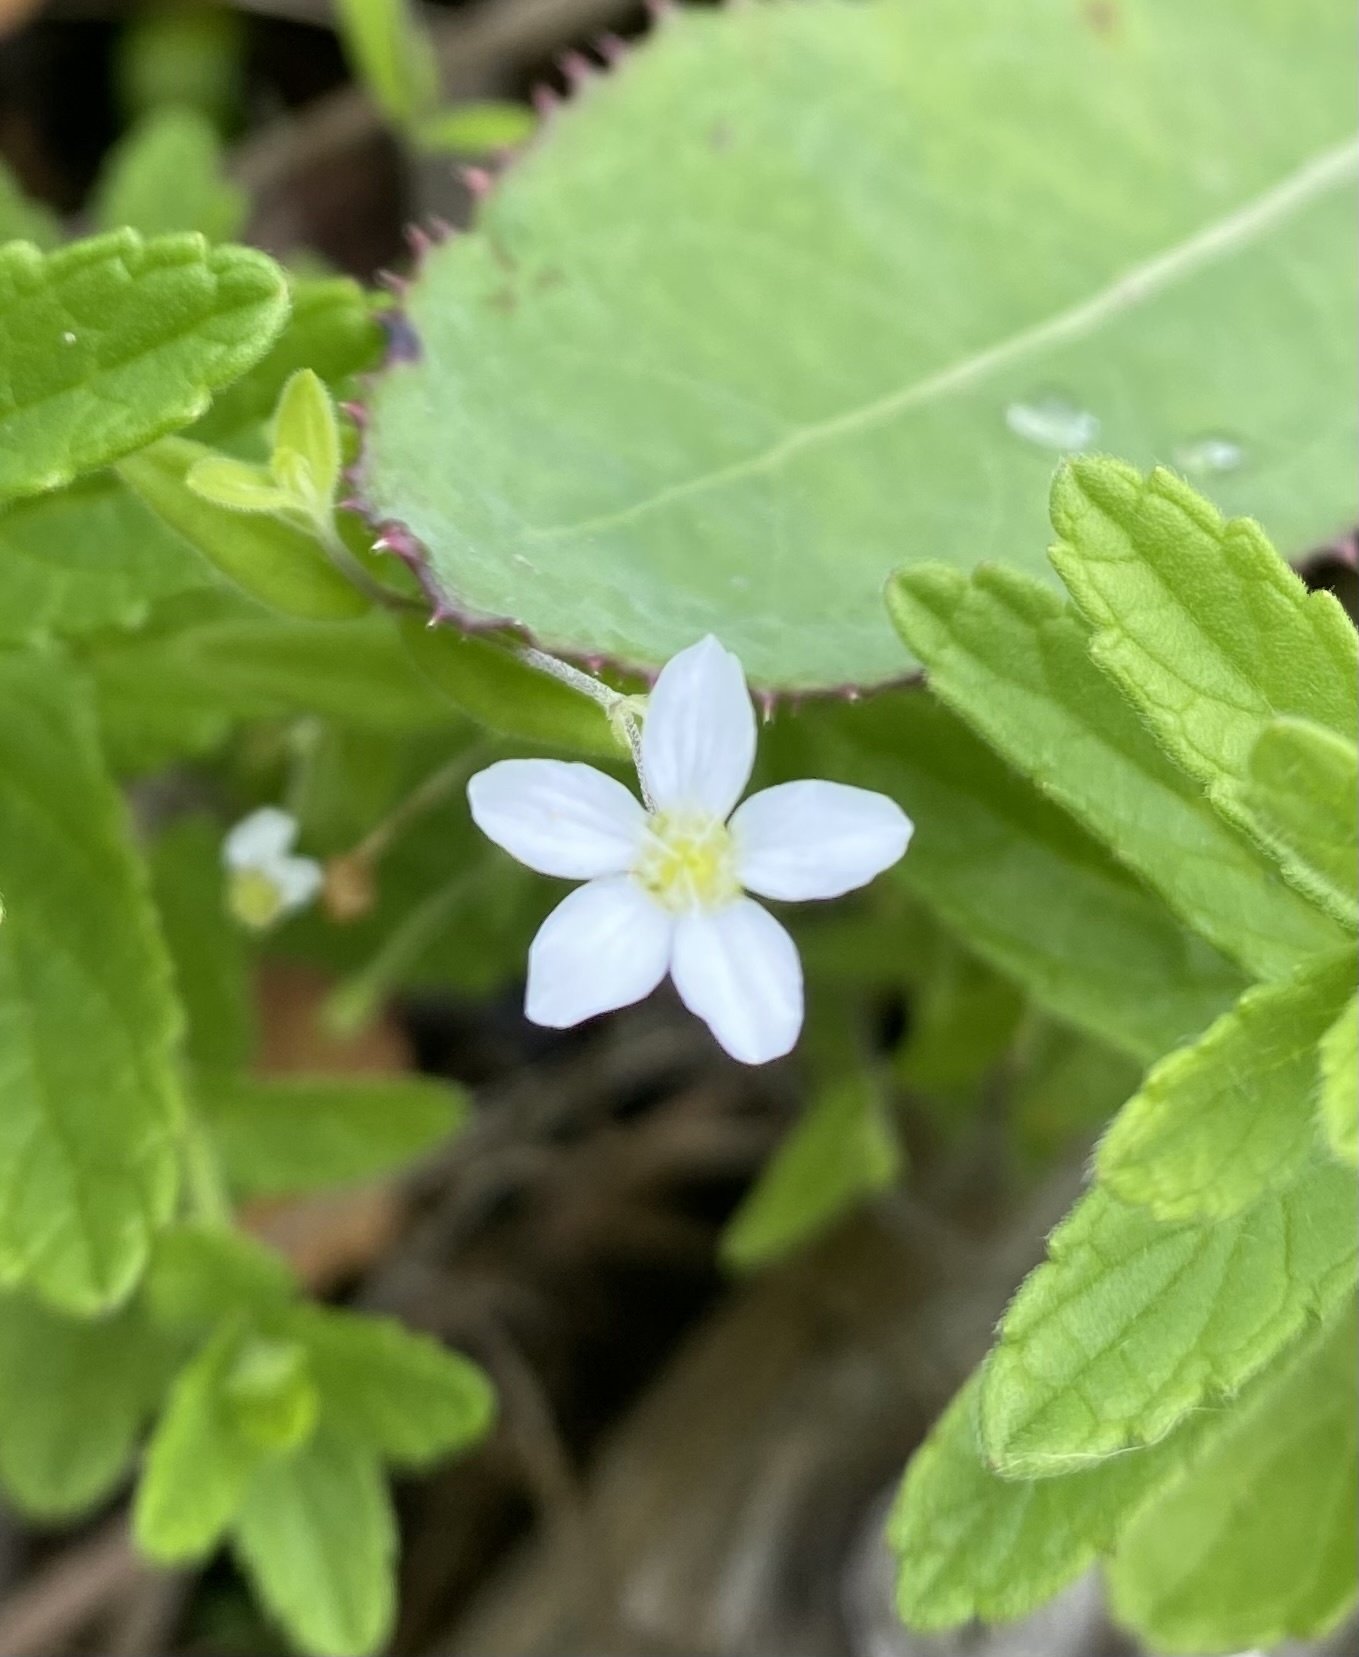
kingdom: Plantae
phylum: Tracheophyta
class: Magnoliopsida
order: Caryophyllales
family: Caryophyllaceae
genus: Moehringia
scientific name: Moehringia lateriflora
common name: Blunt-leaved sandwort
